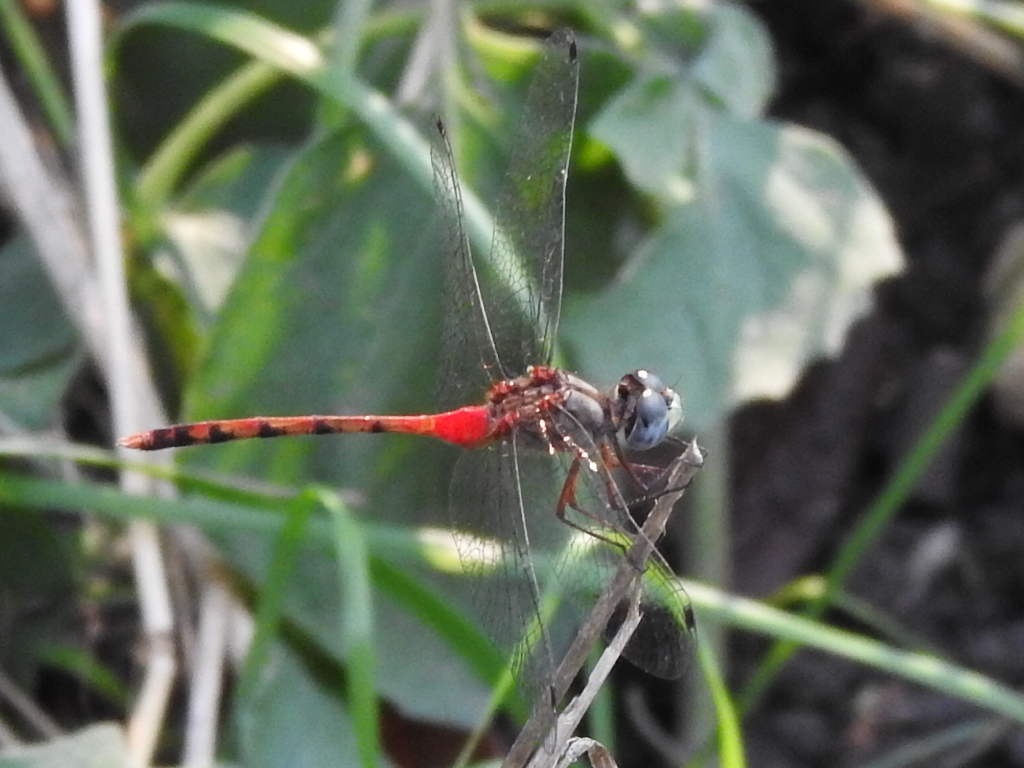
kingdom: Animalia
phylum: Arthropoda
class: Insecta
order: Odonata
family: Libellulidae
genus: Sympetrum
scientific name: Sympetrum ambiguum
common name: Blue-faced meadowhawk
